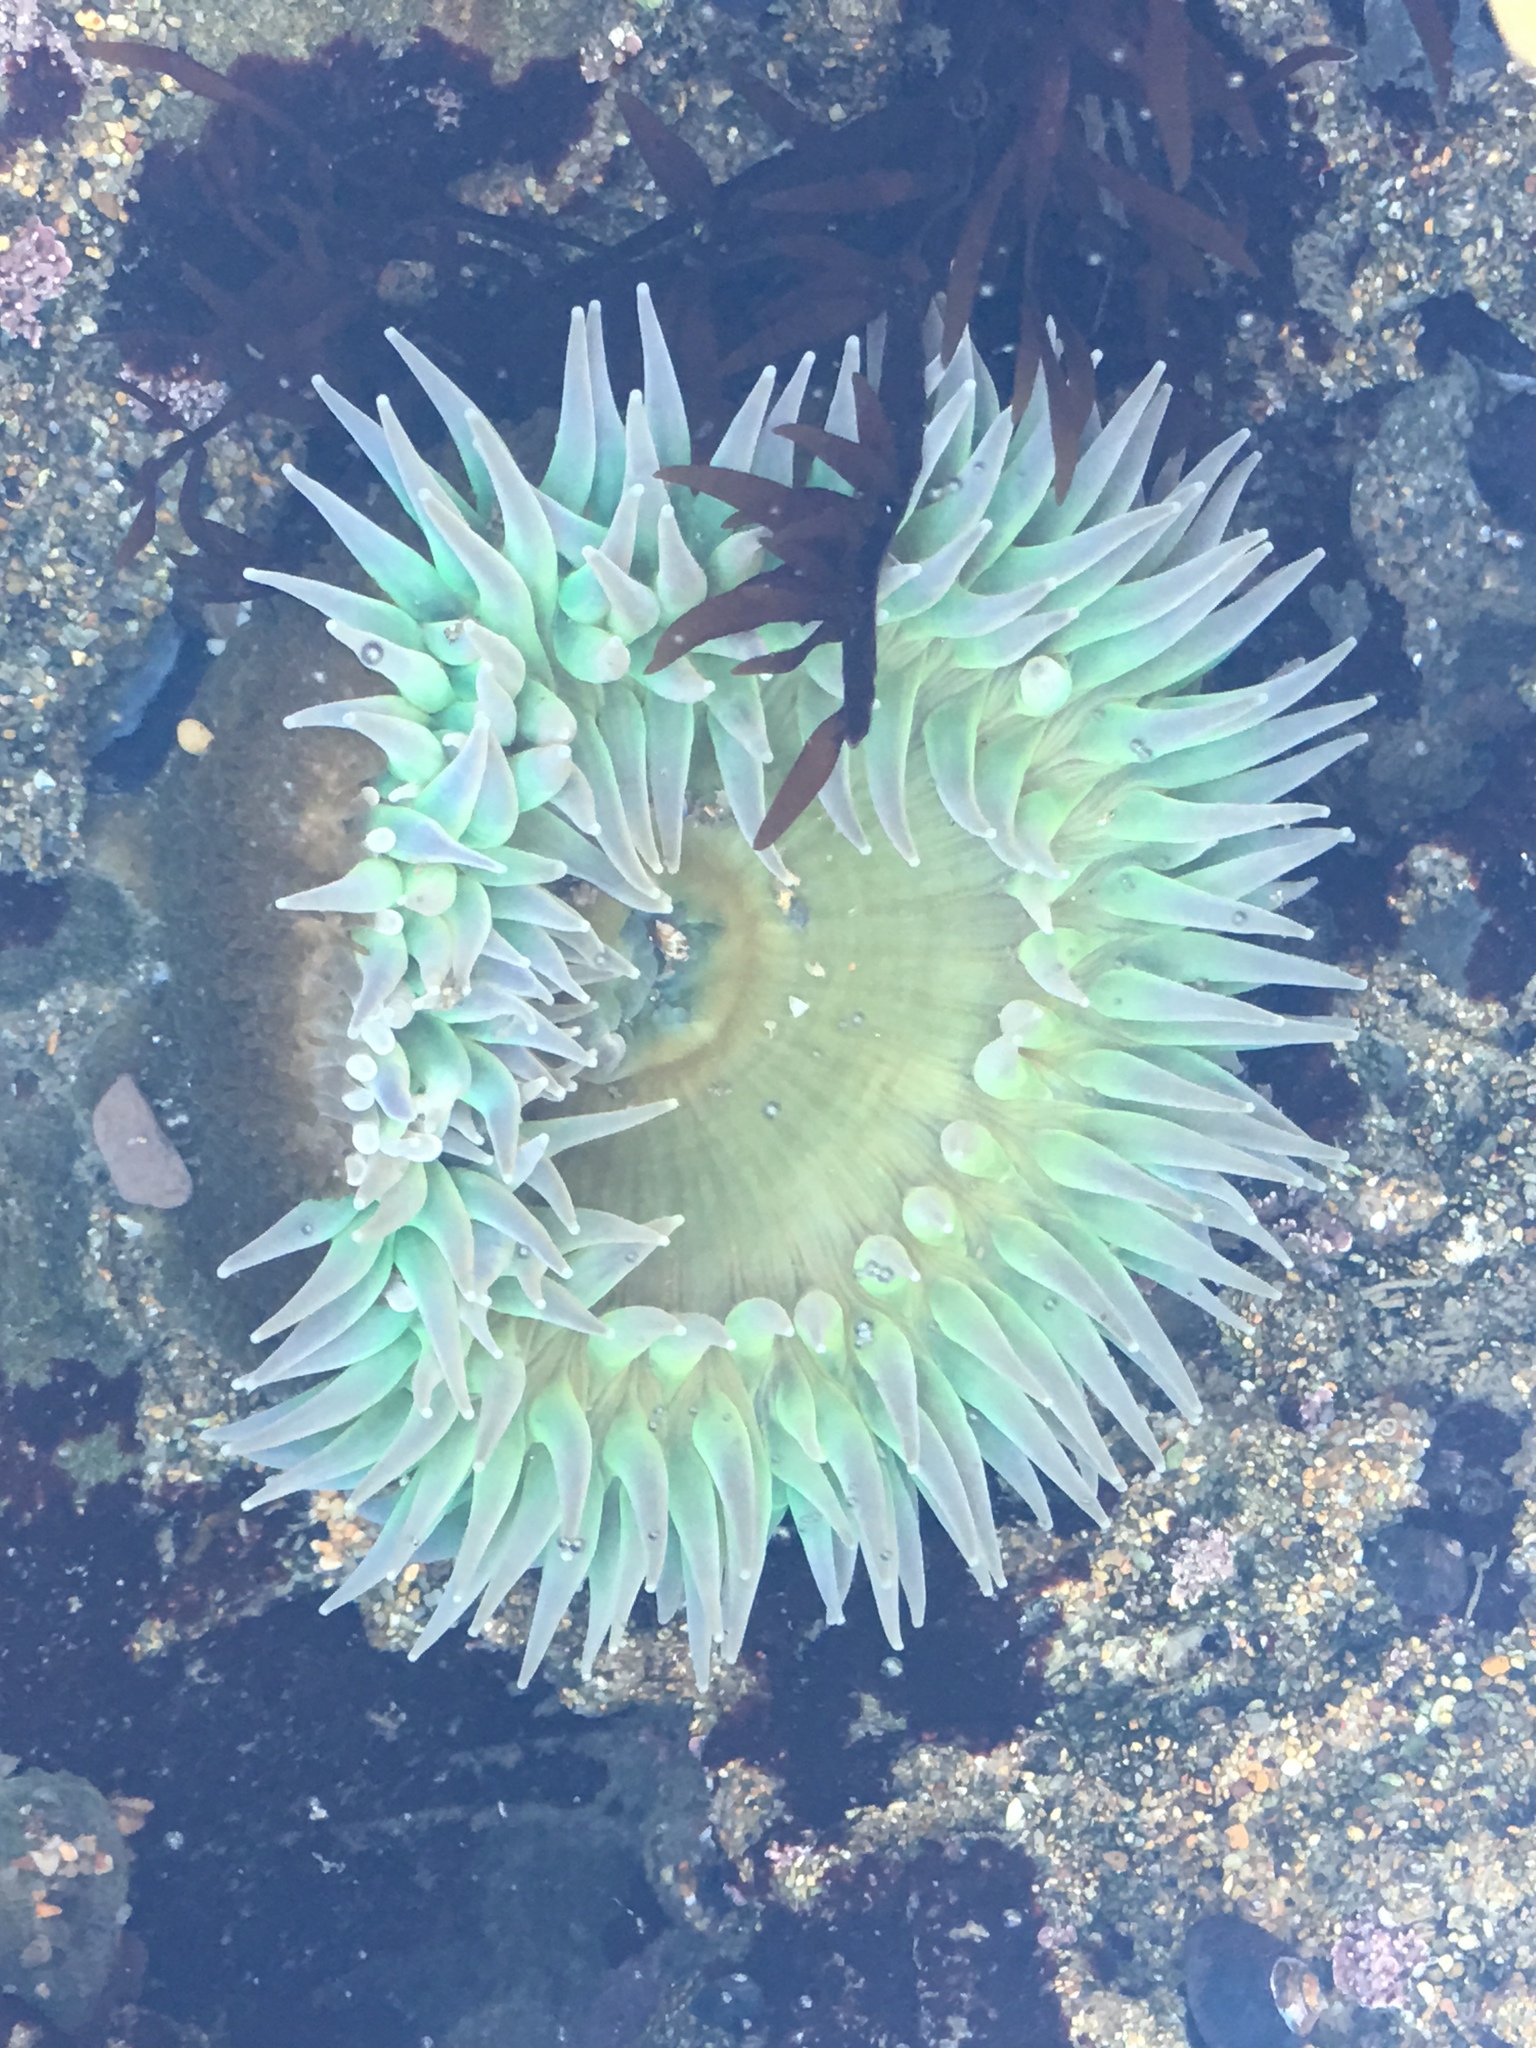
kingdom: Animalia
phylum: Cnidaria
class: Anthozoa
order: Actiniaria
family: Actiniidae
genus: Anthopleura
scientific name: Anthopleura xanthogrammica
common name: Giant green anemone
